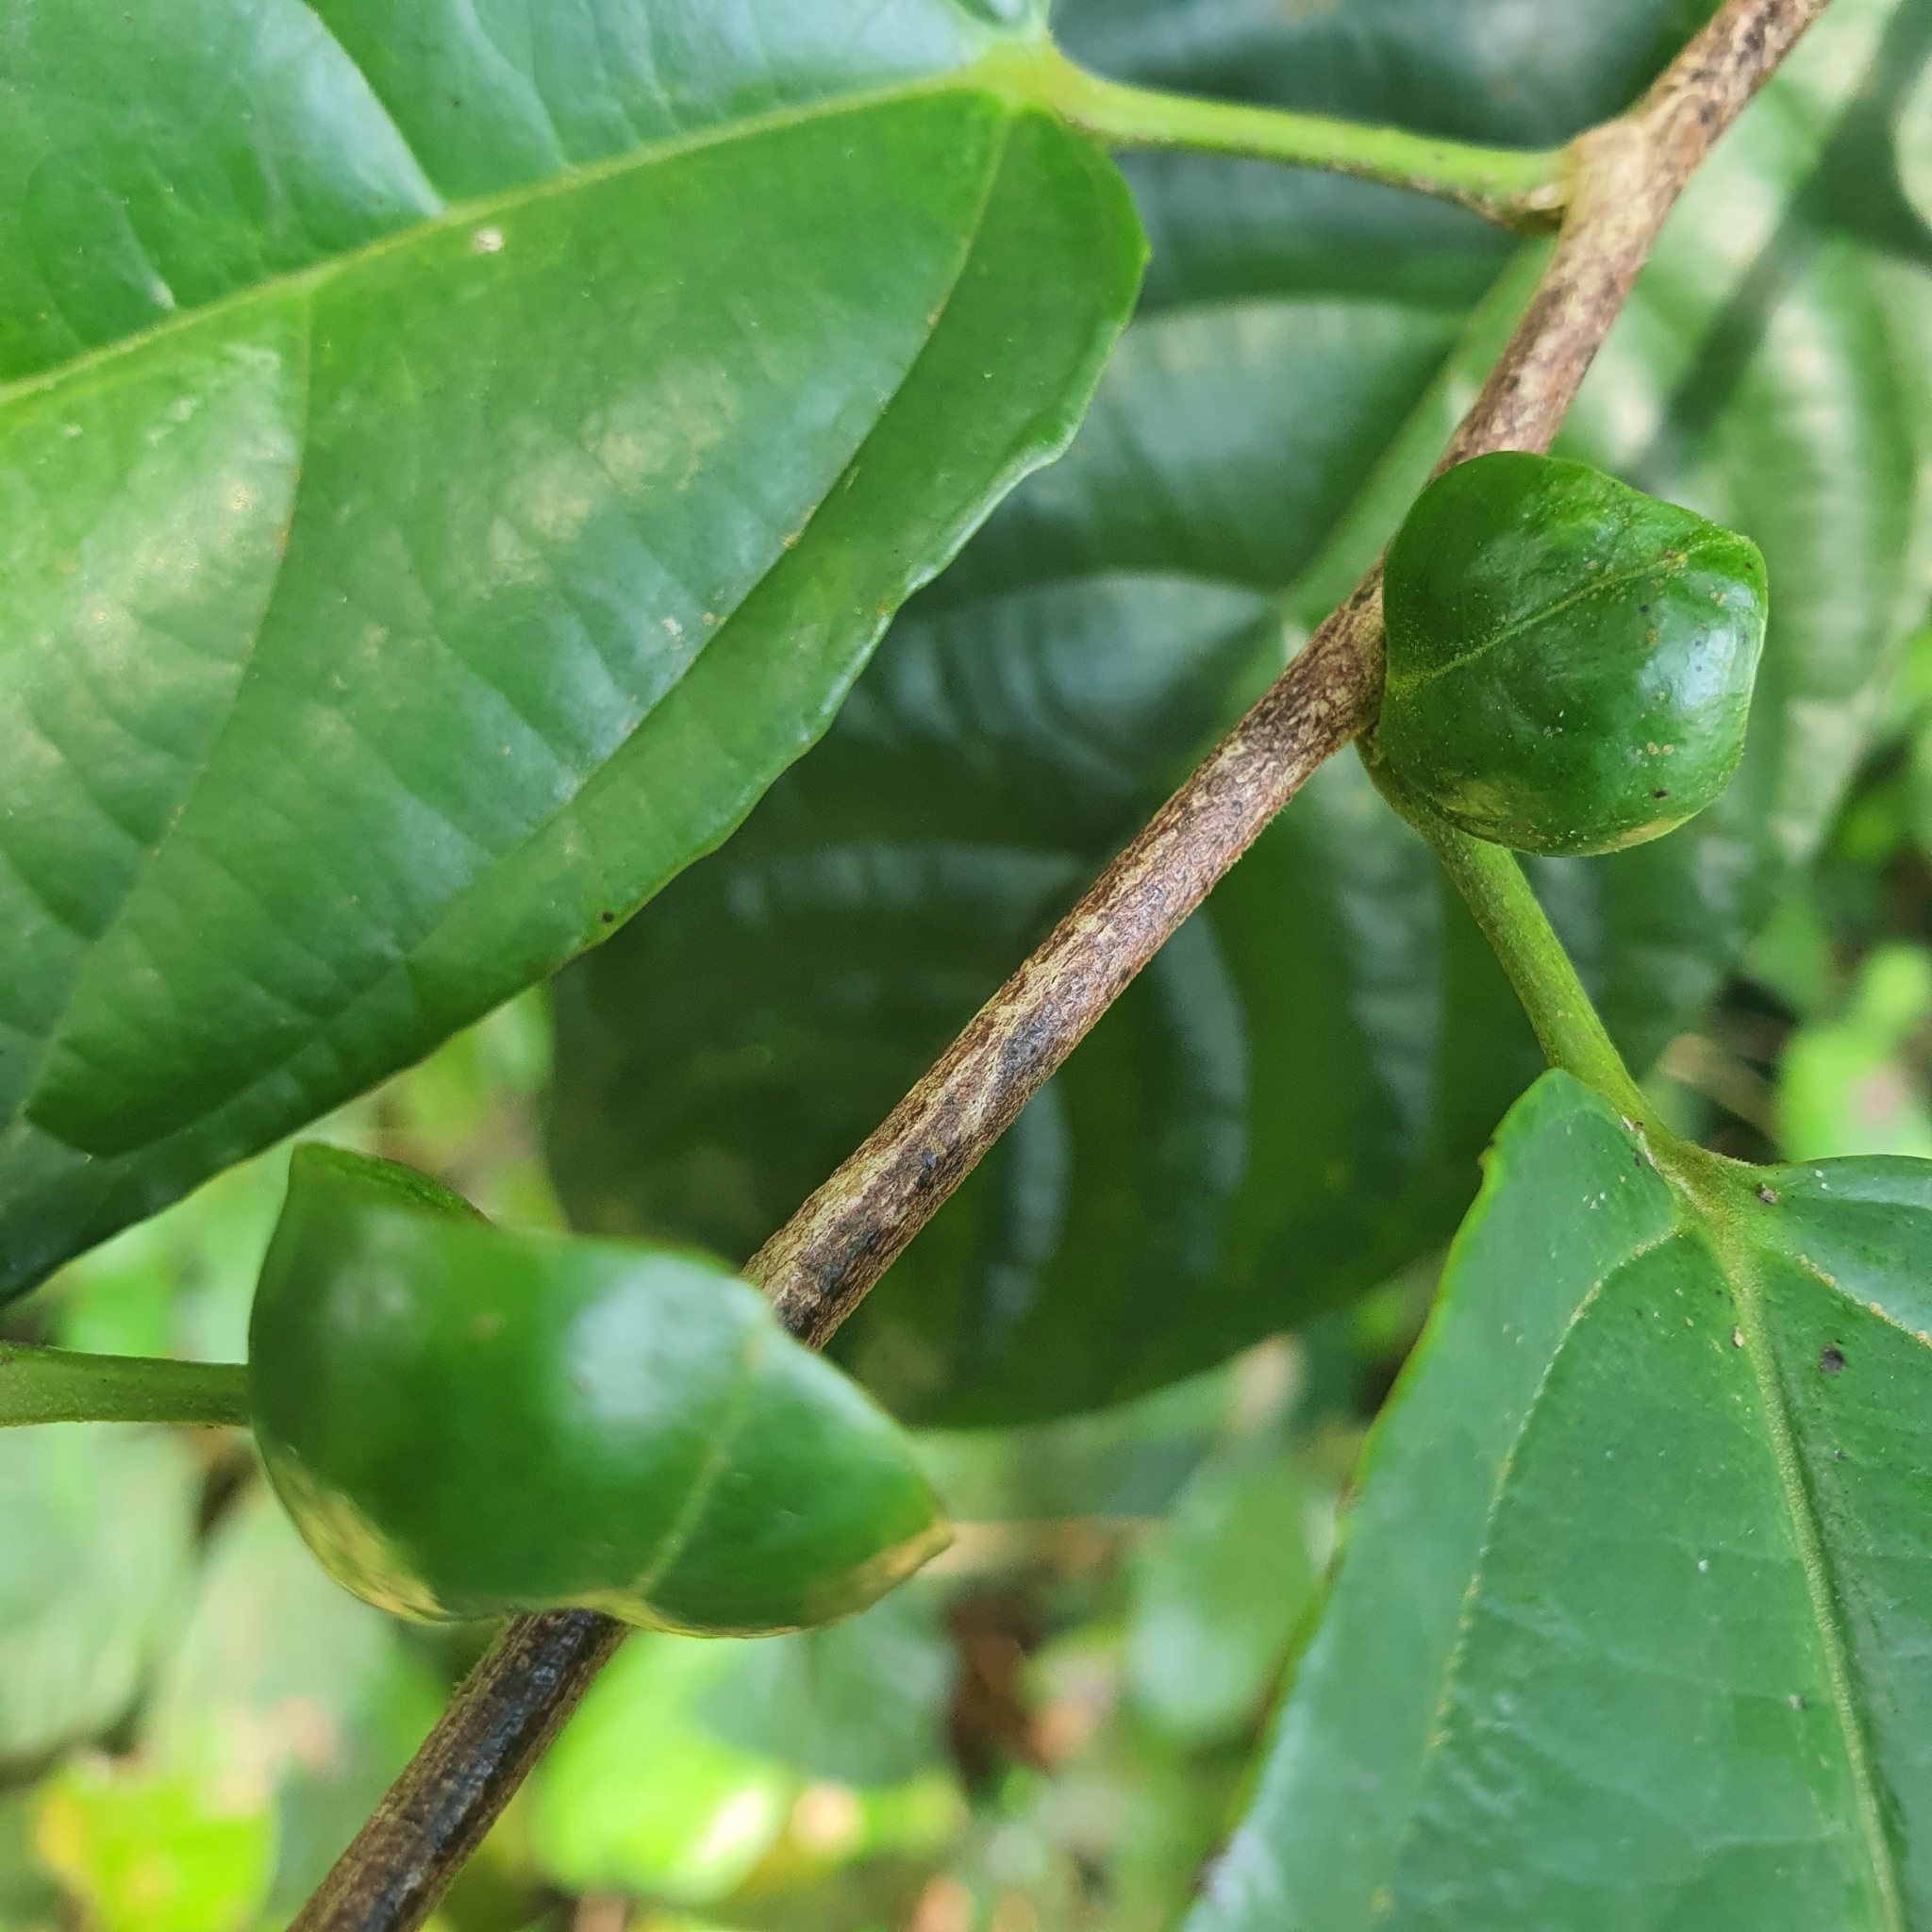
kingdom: Plantae
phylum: Tracheophyta
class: Magnoliopsida
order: Malpighiales
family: Salicaceae
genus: Osmelia
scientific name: Osmelia grandistipulata
